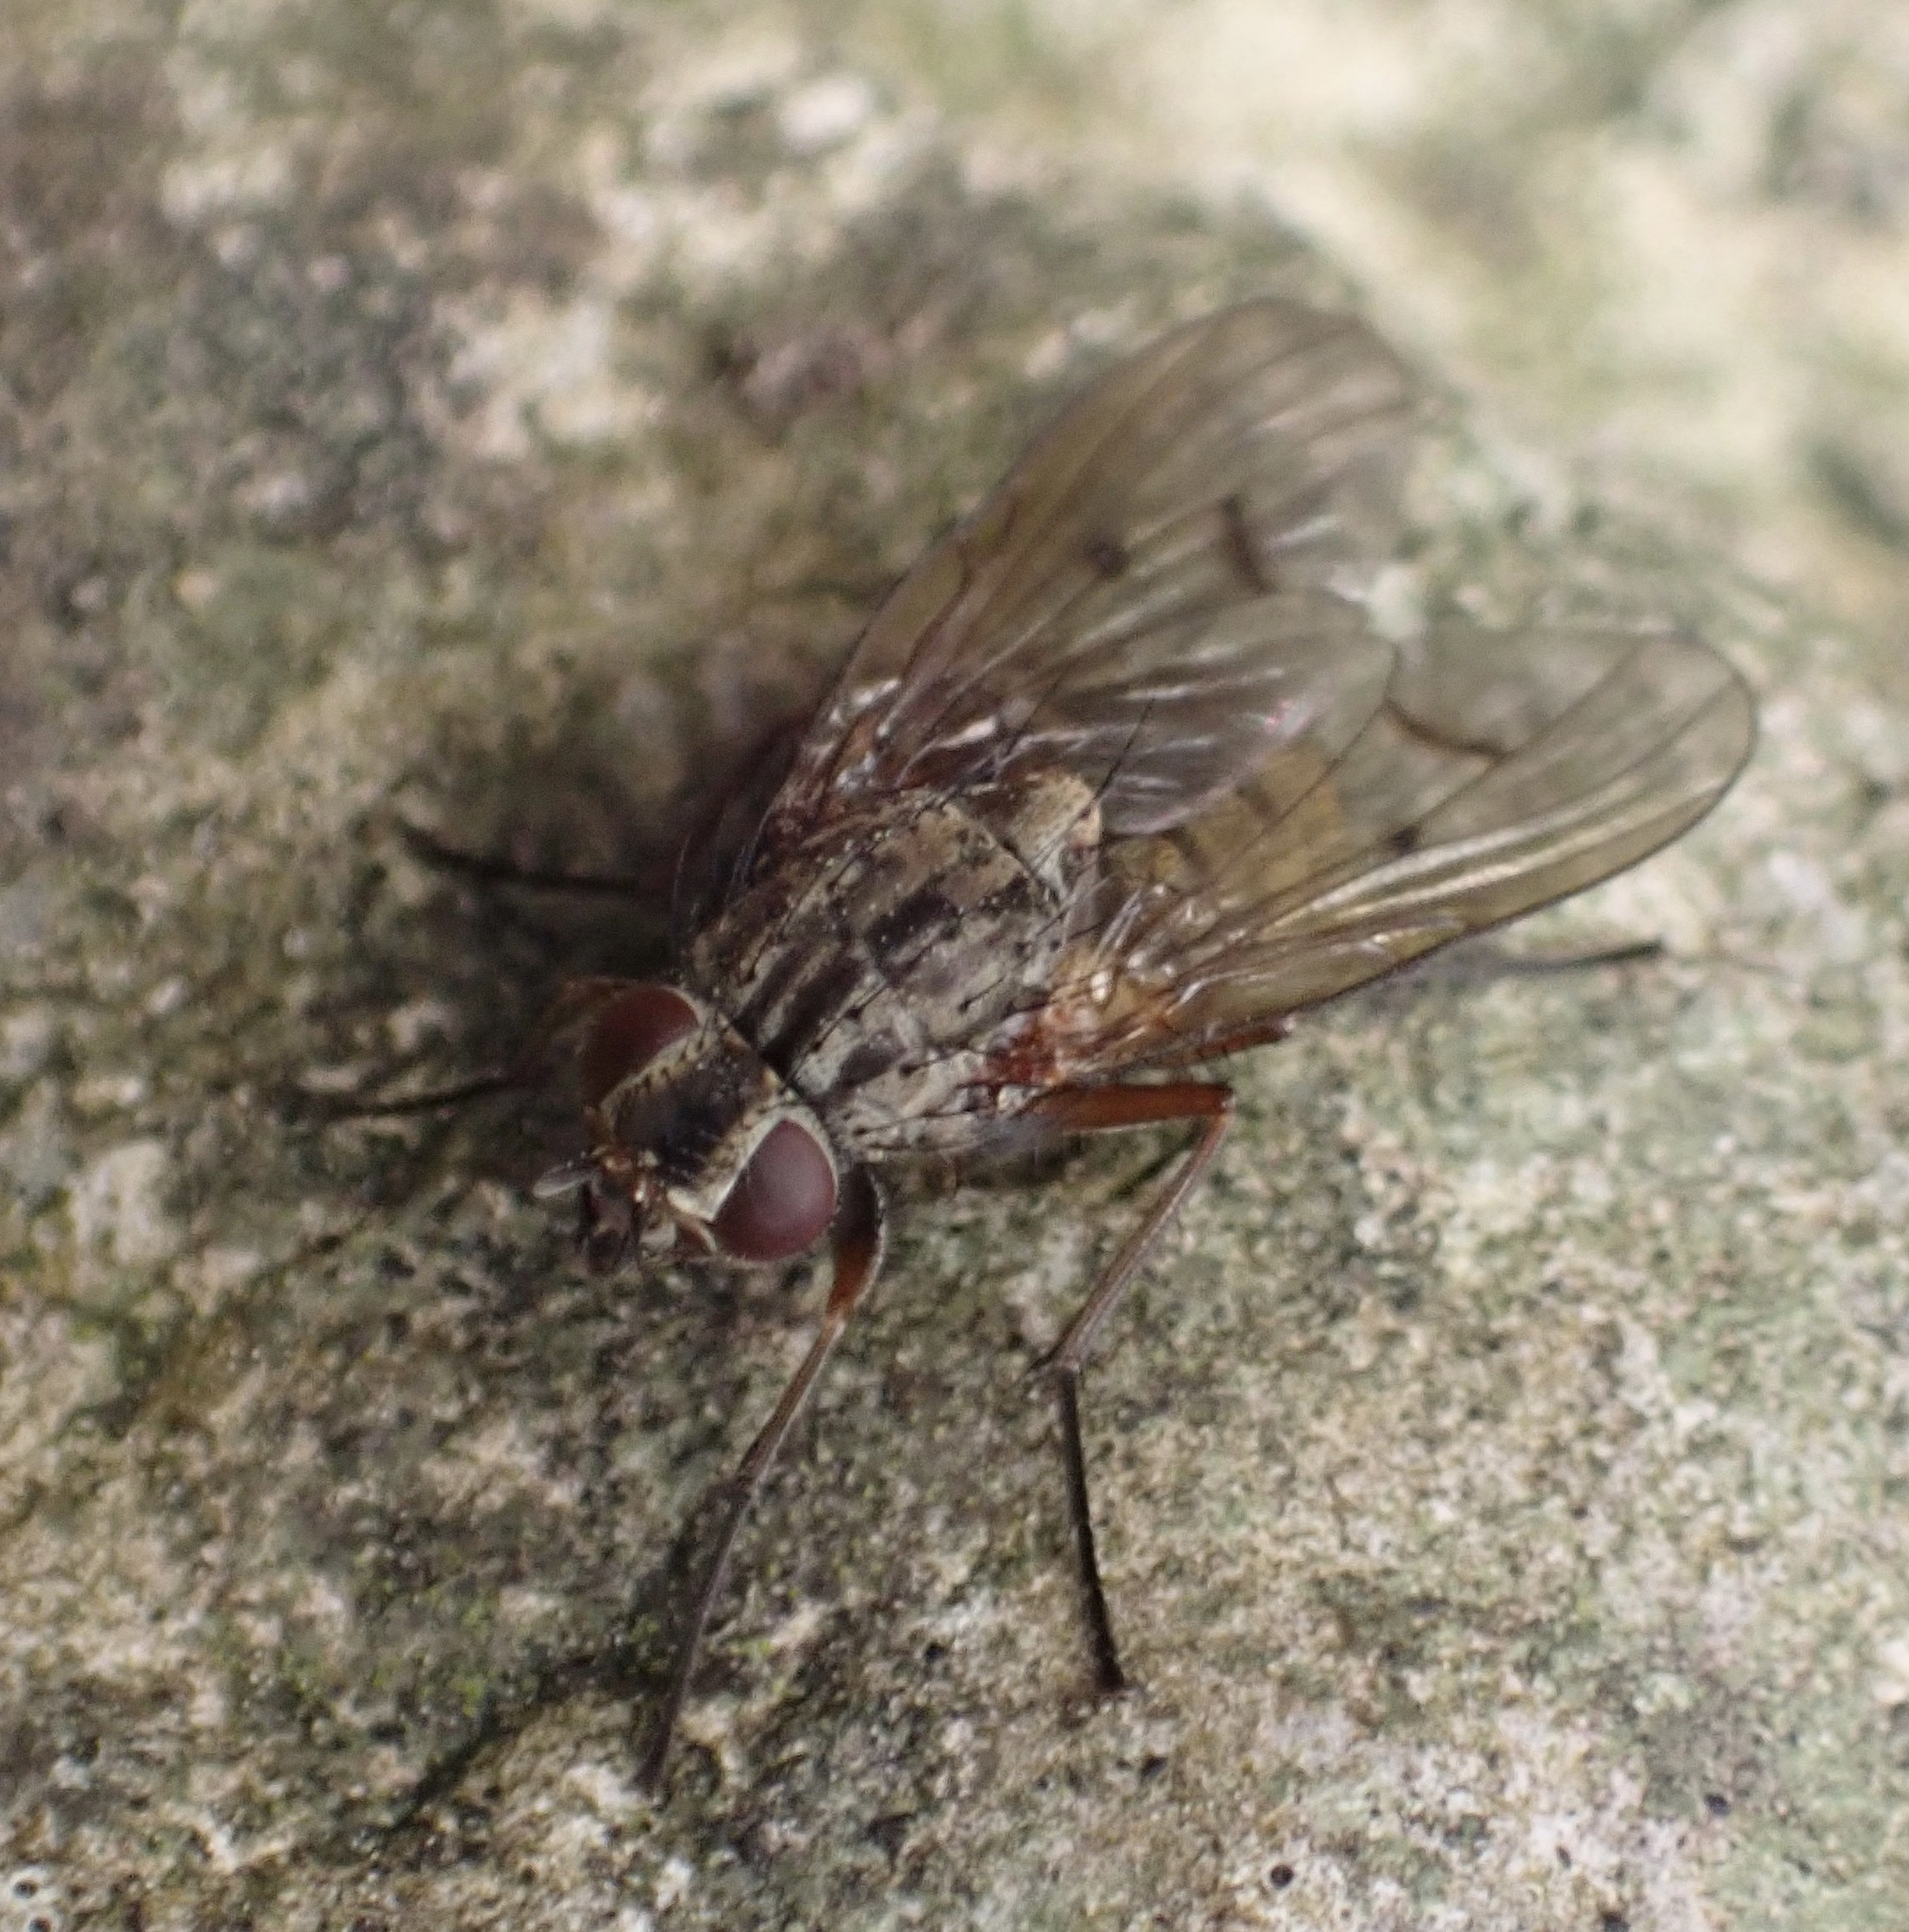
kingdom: Animalia
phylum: Arthropoda
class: Insecta
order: Diptera
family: Muscidae
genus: Phaonia
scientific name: Phaonia tuguriorum
